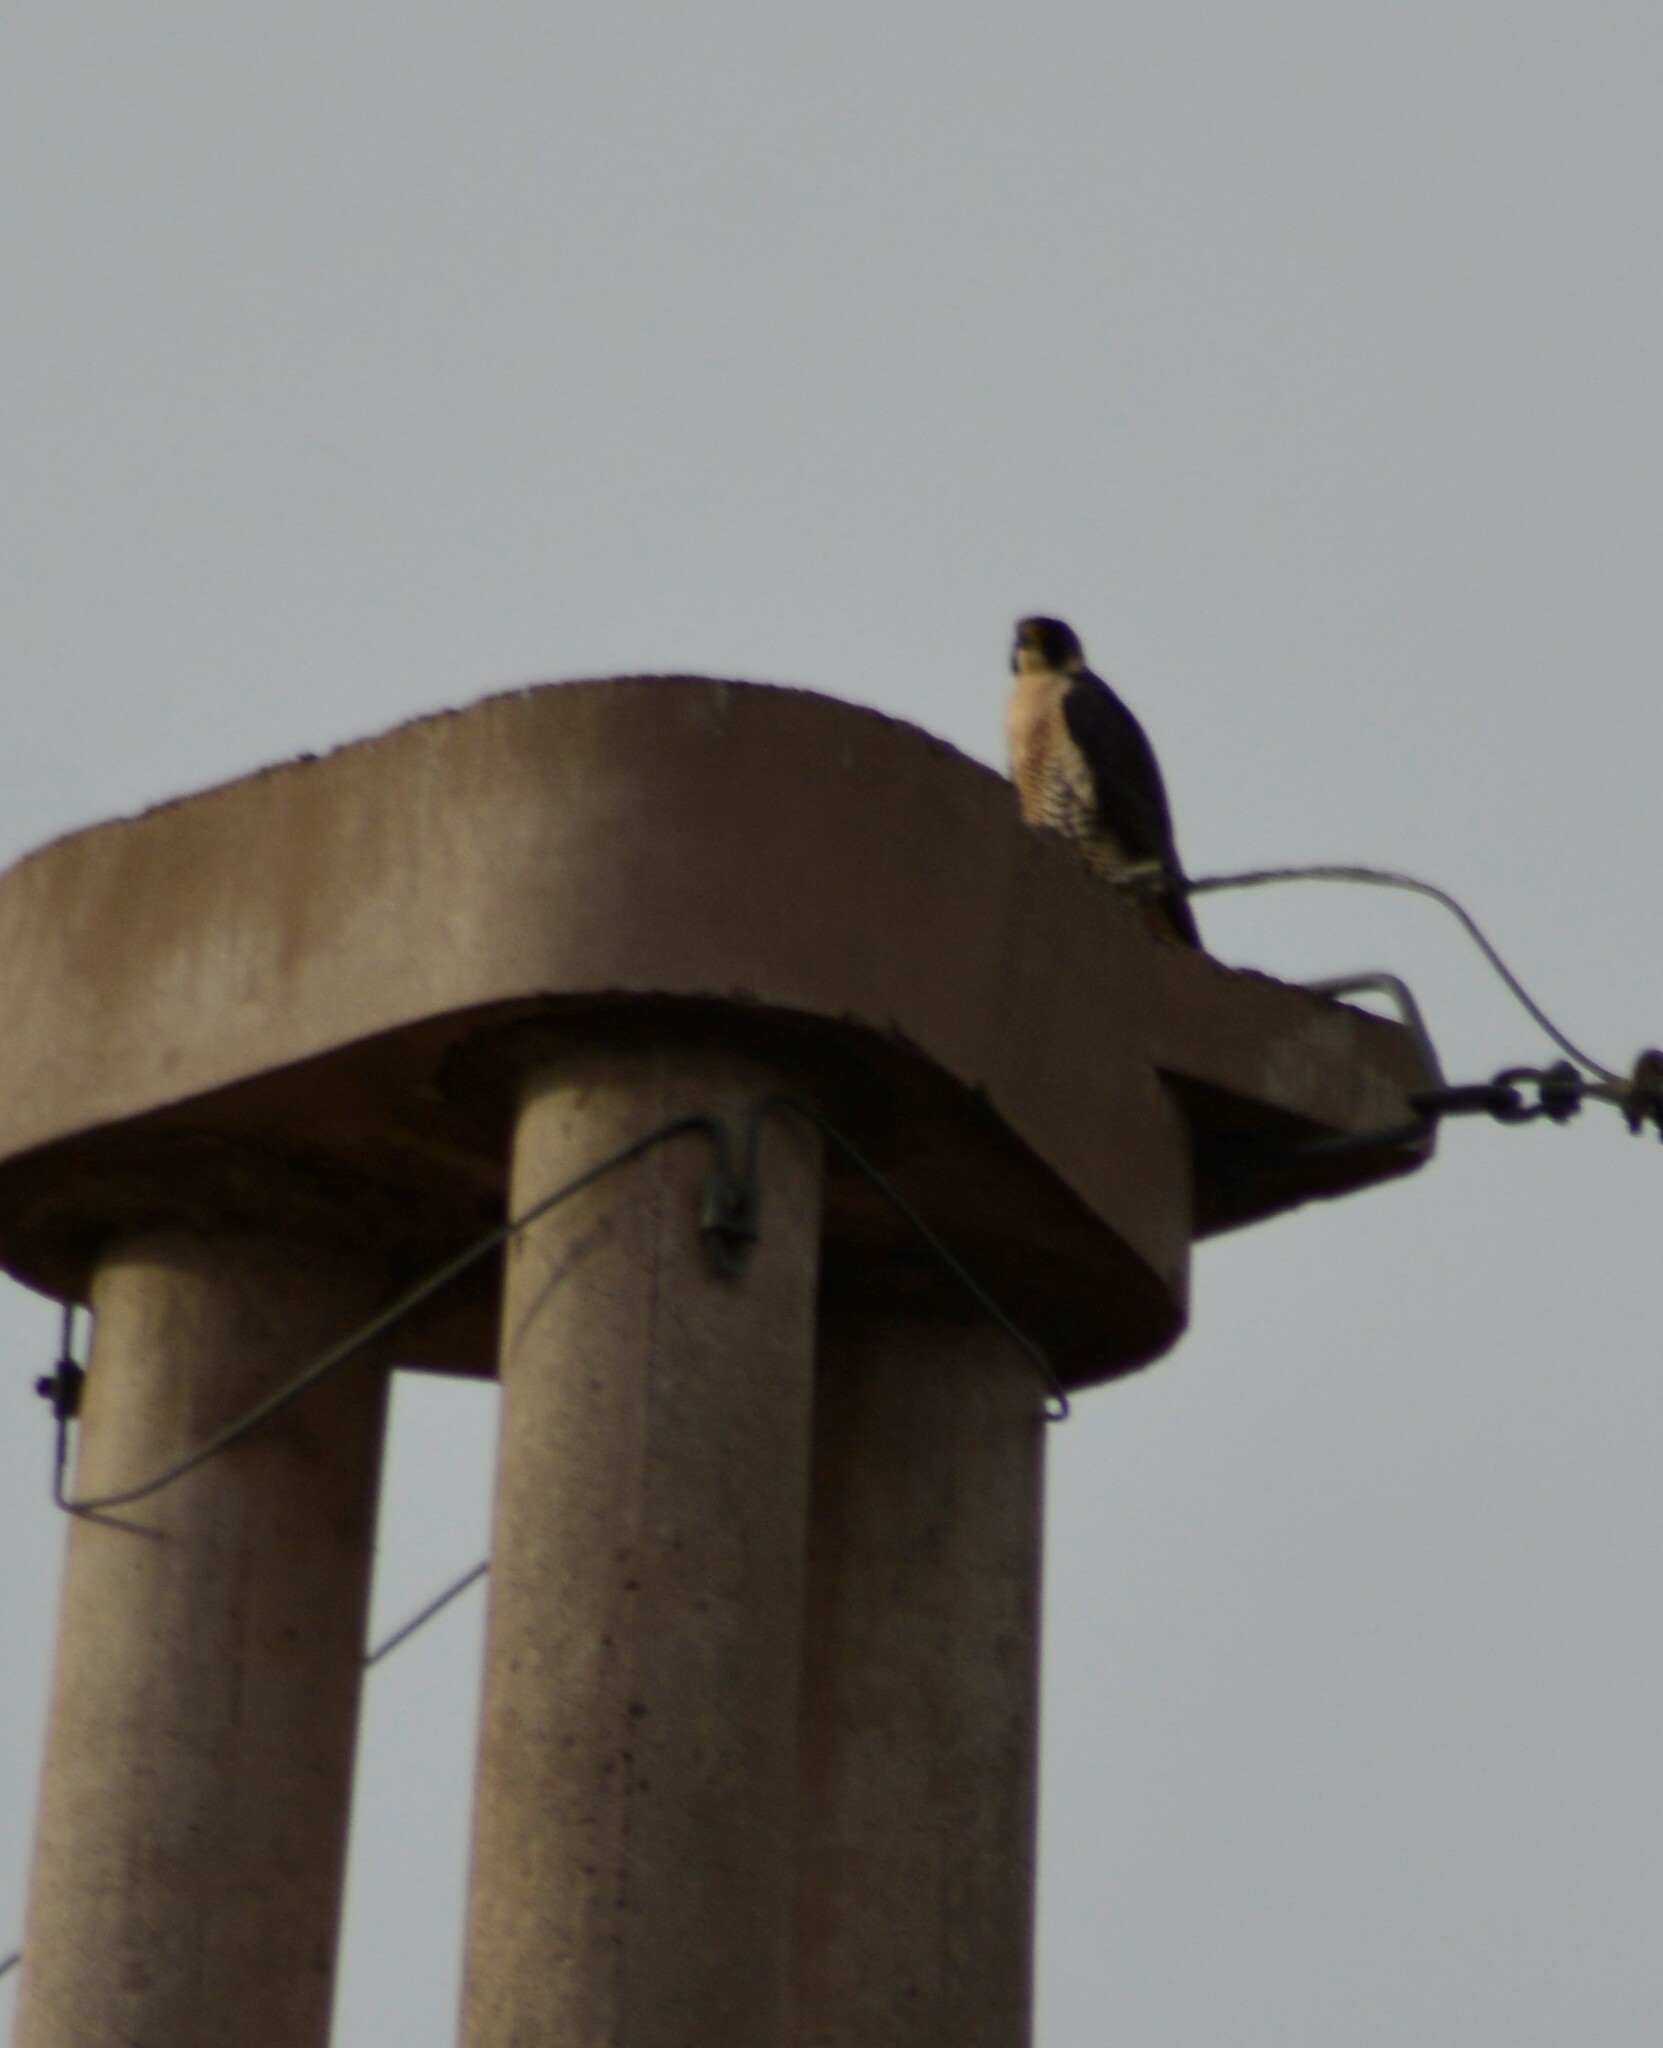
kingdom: Animalia
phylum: Chordata
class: Aves
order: Falconiformes
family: Falconidae
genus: Falco
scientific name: Falco peregrinus
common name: Peregrine falcon
